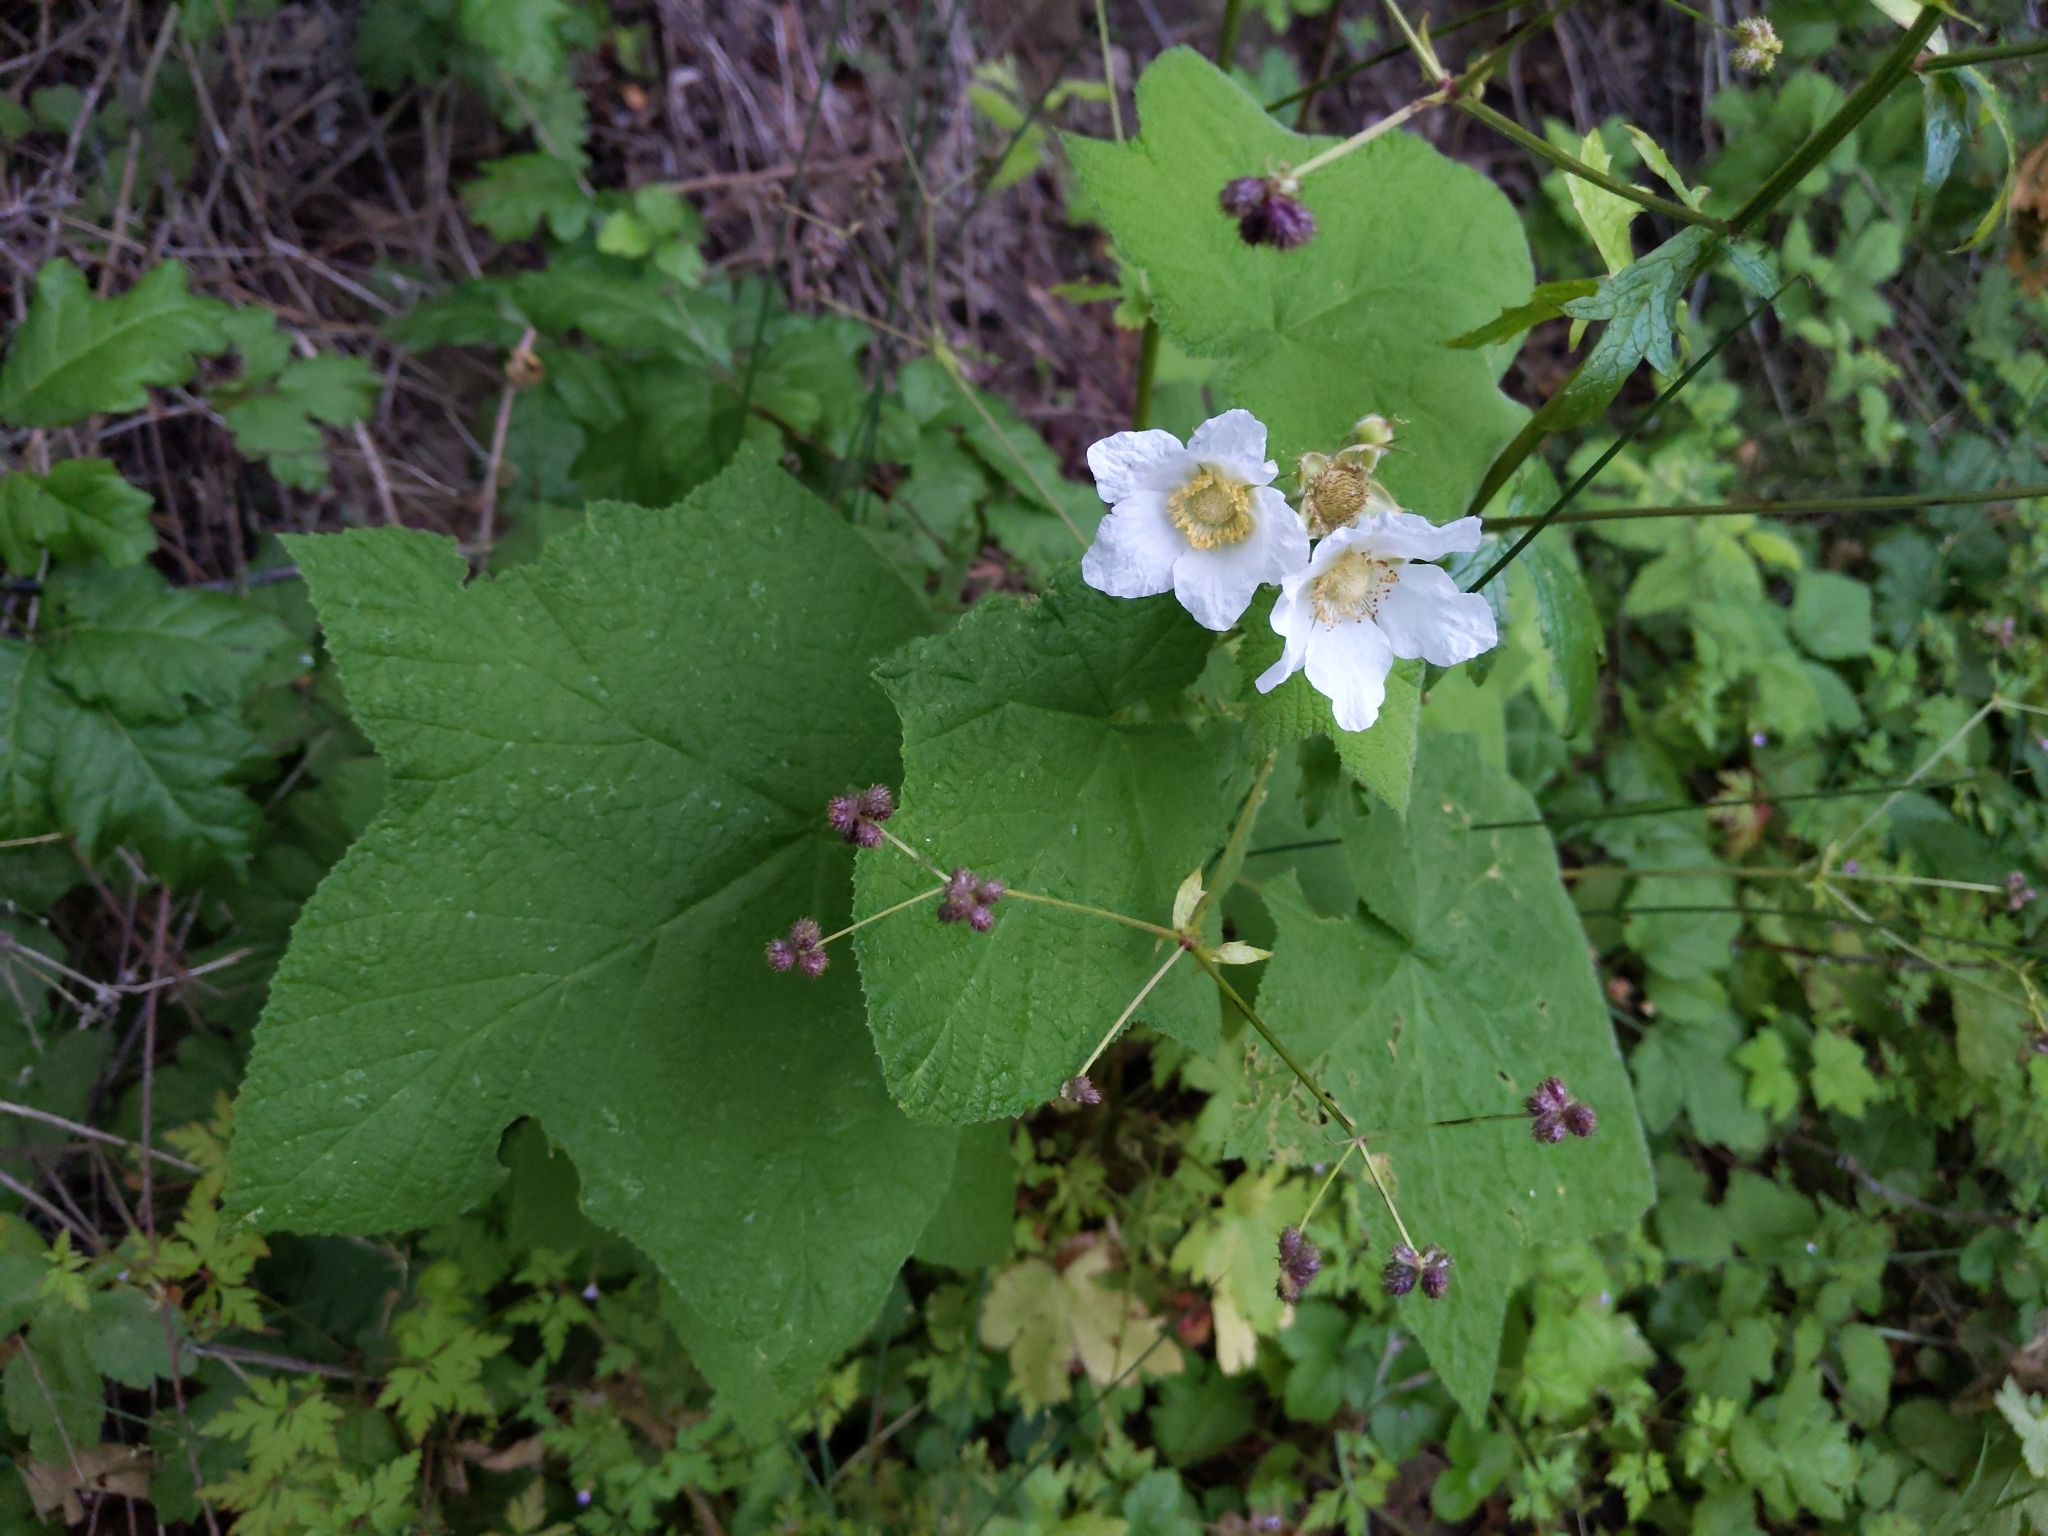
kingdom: Plantae
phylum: Tracheophyta
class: Magnoliopsida
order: Rosales
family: Rosaceae
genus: Rubus
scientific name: Rubus parviflorus
